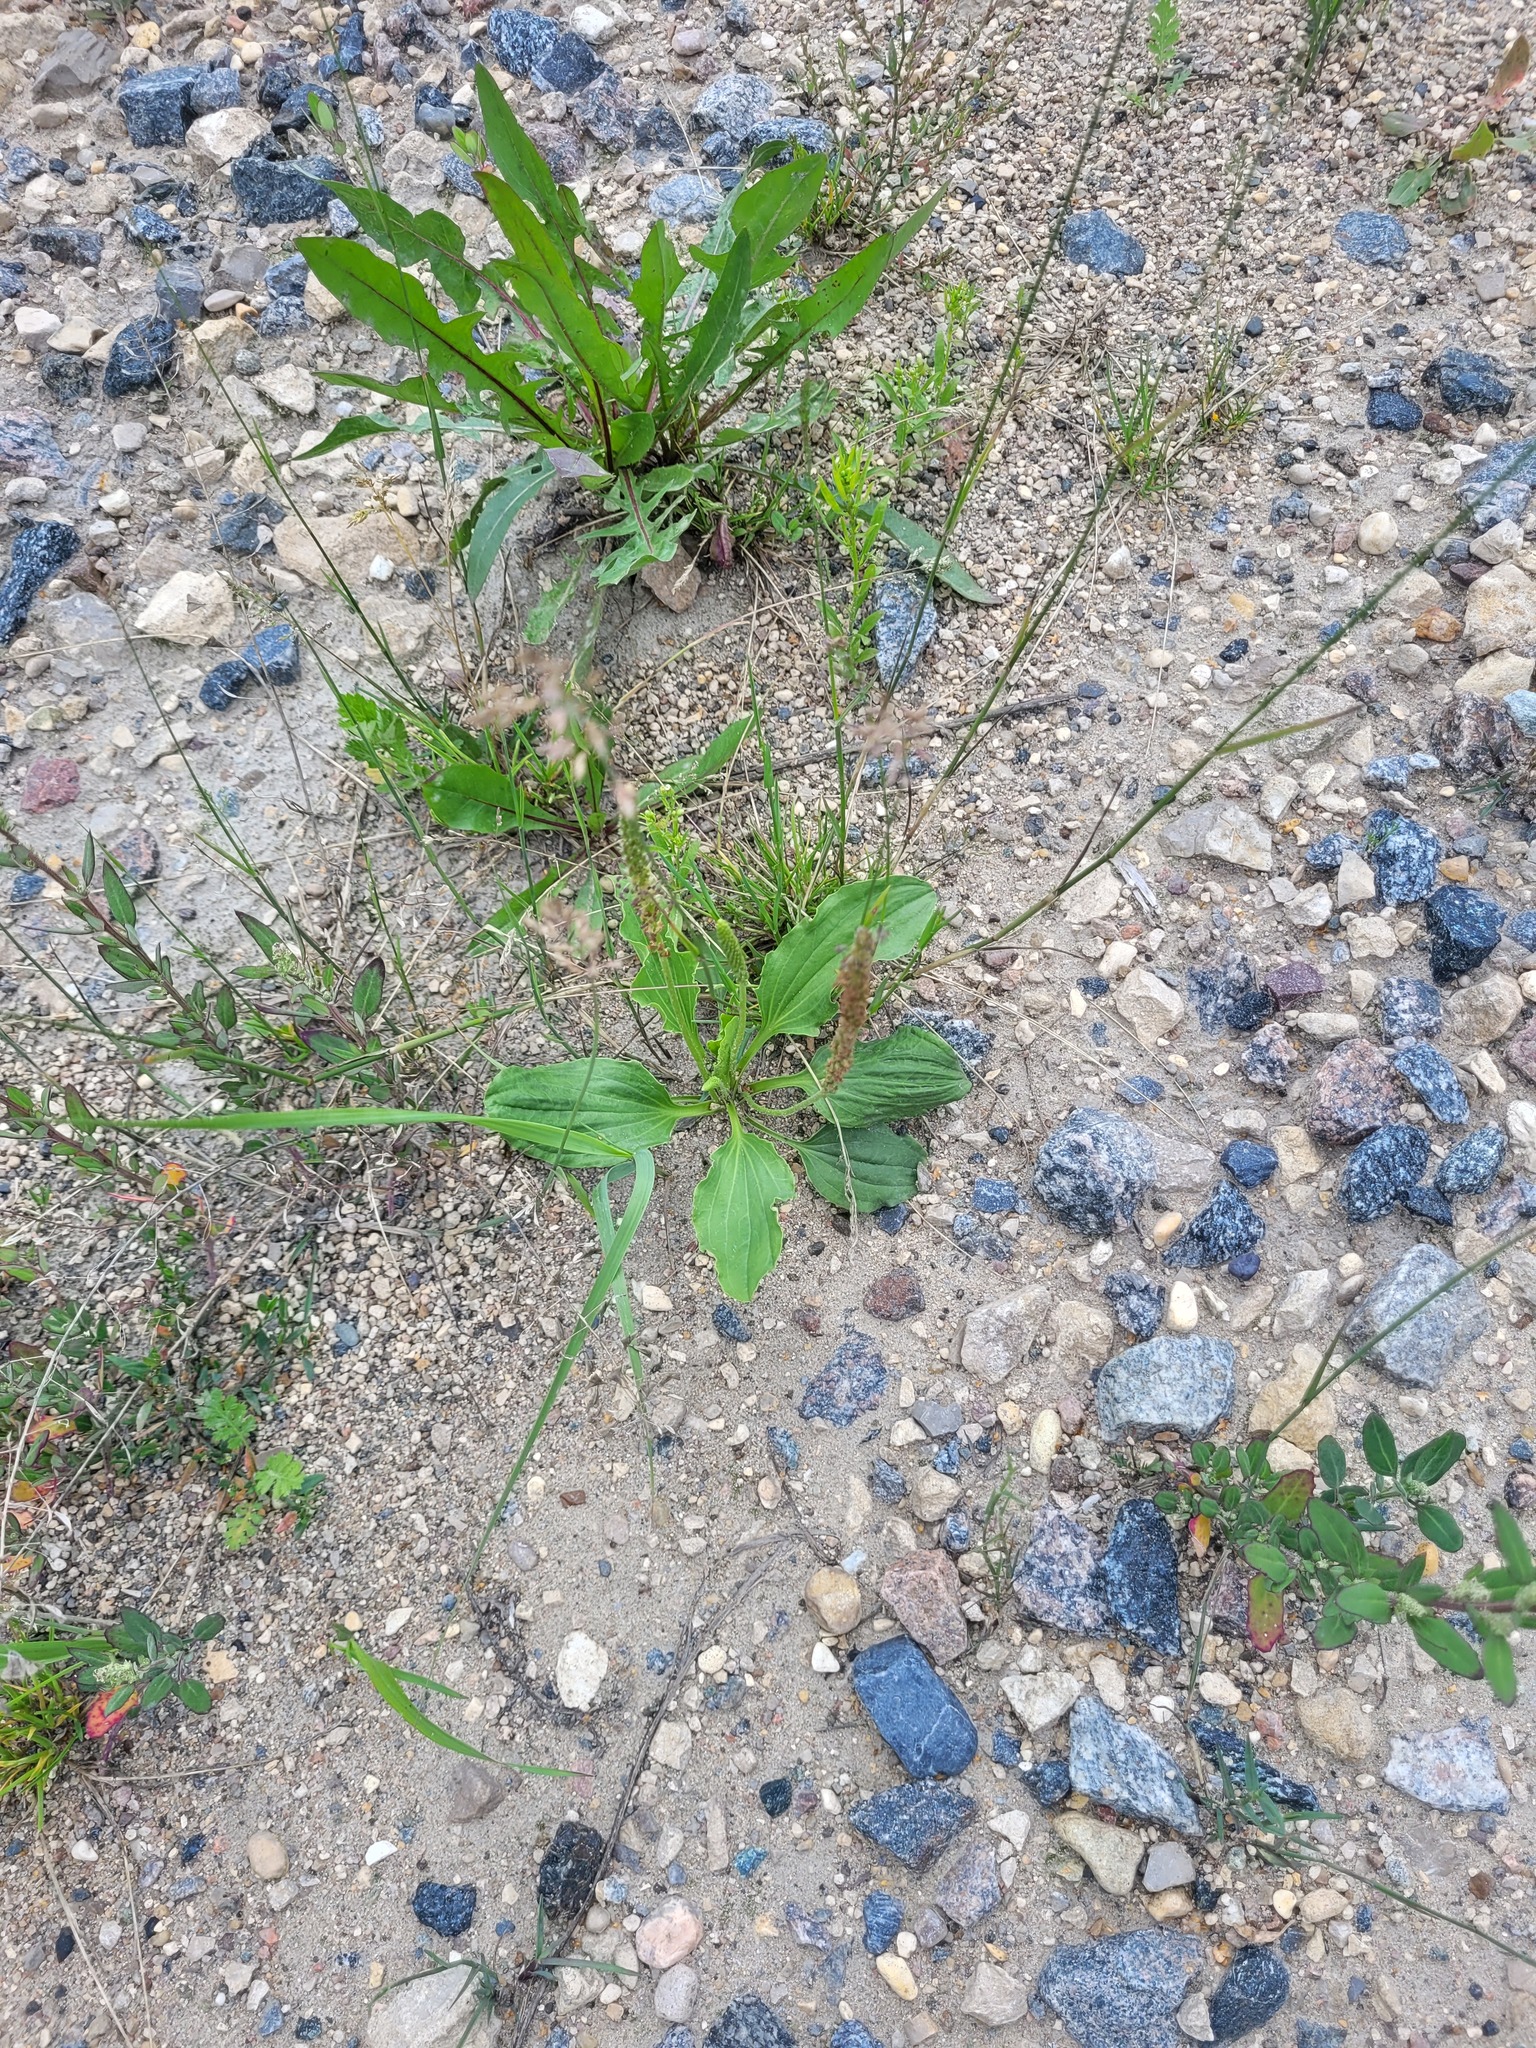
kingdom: Plantae
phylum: Tracheophyta
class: Magnoliopsida
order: Lamiales
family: Plantaginaceae
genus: Plantago
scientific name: Plantago major
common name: Common plantain
